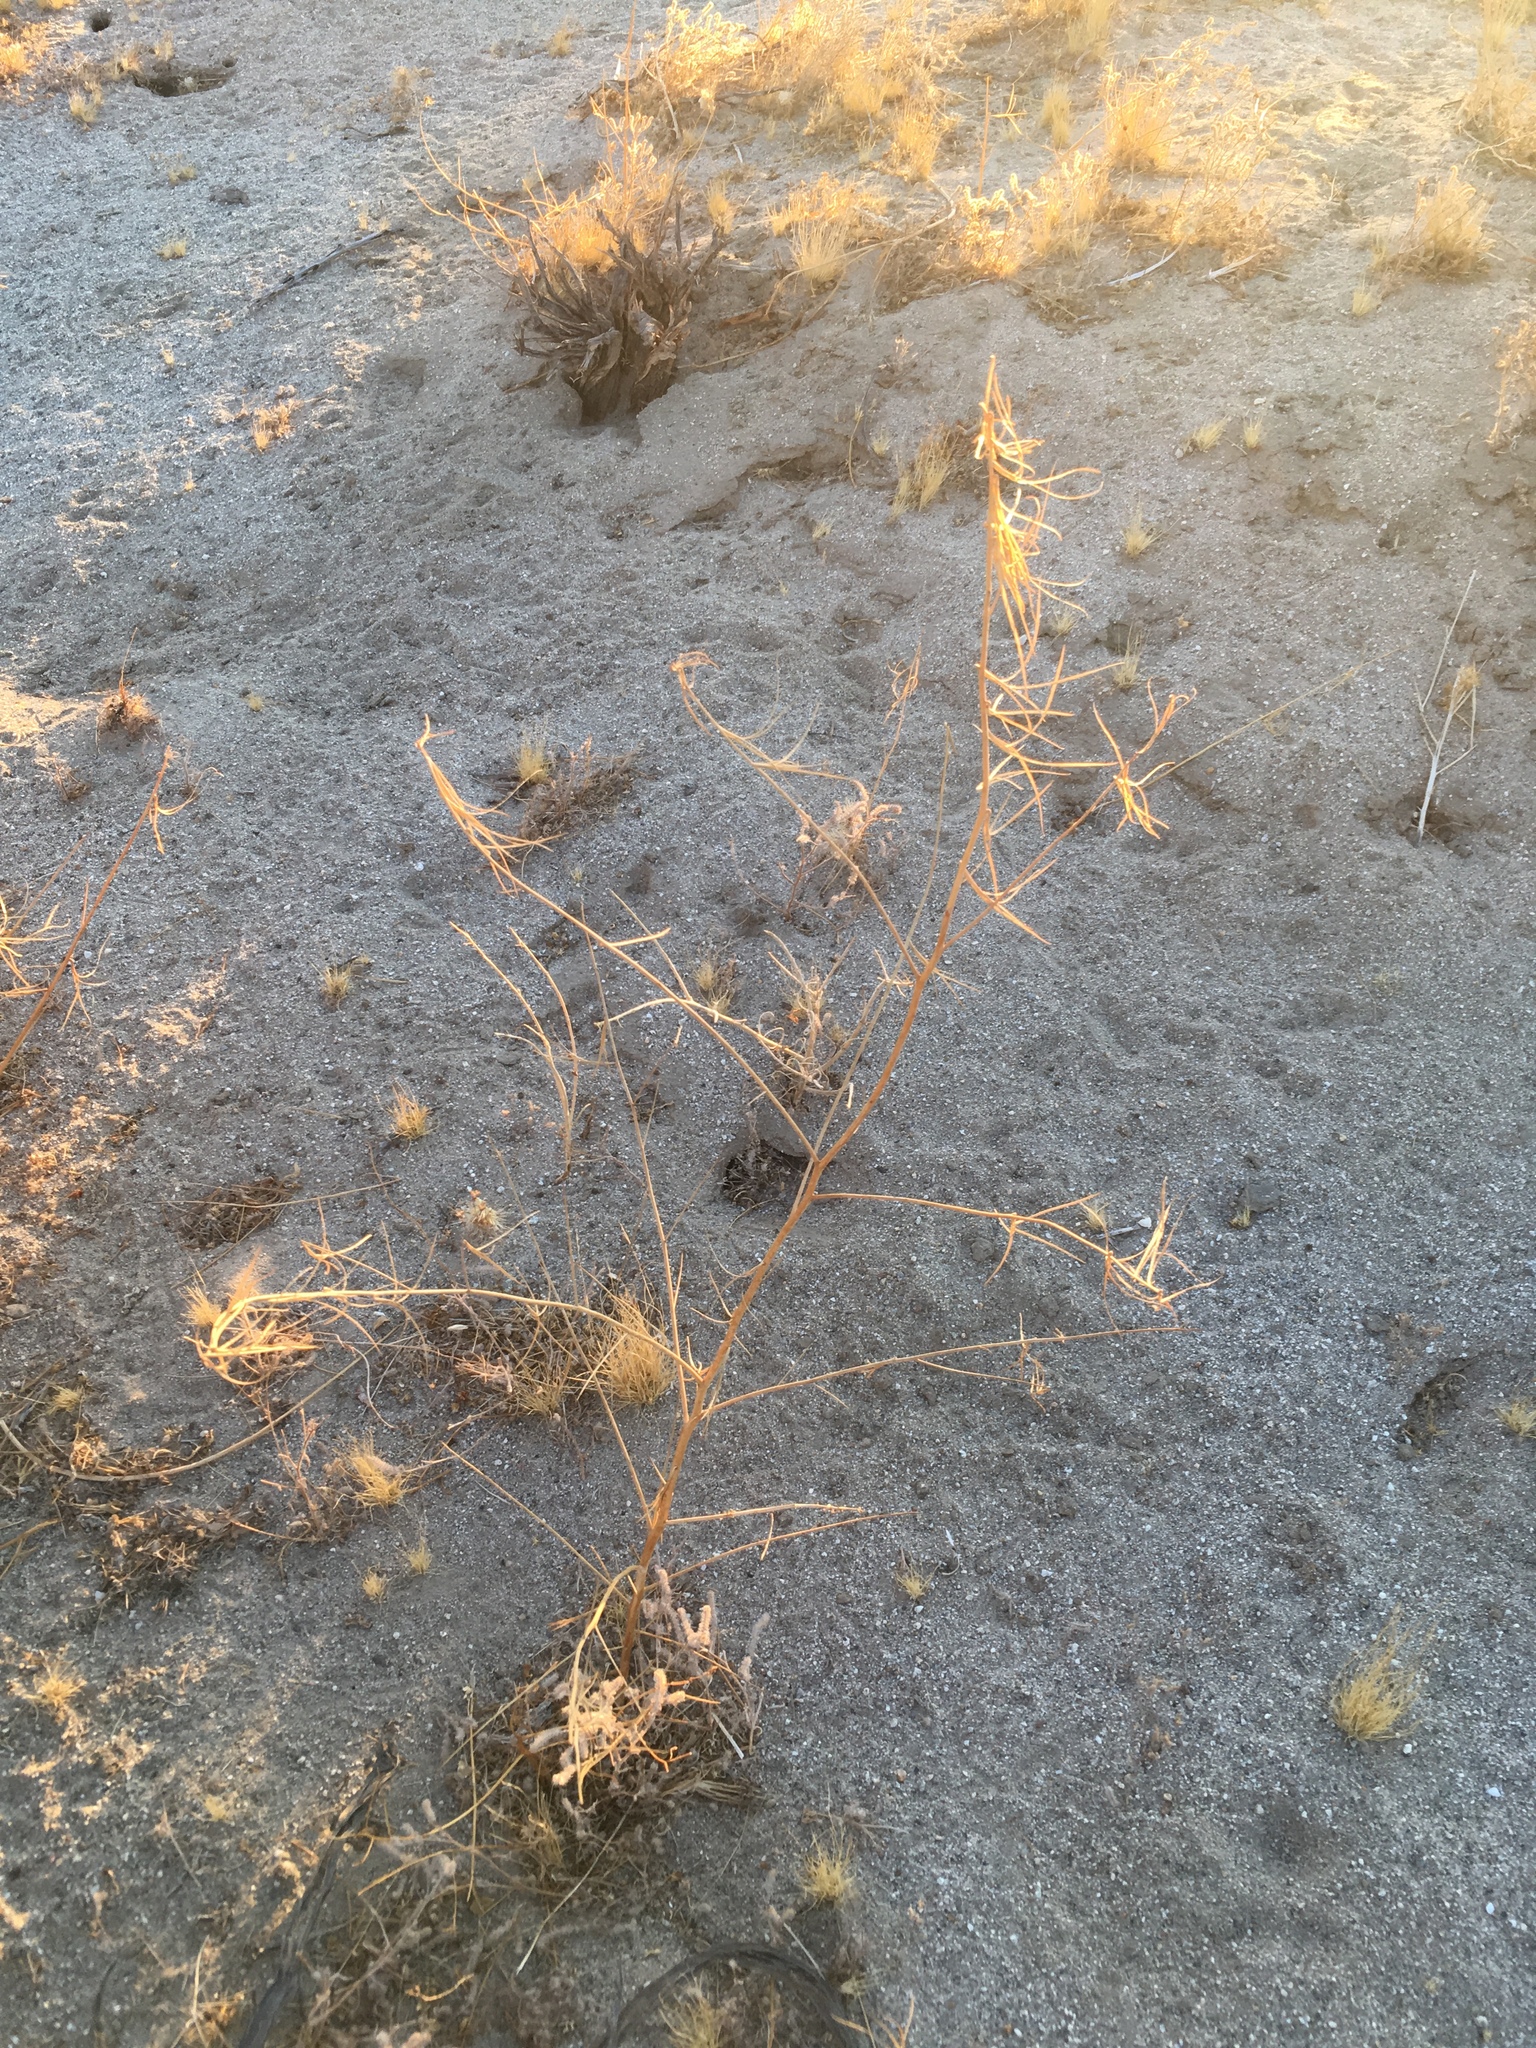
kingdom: Plantae
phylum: Tracheophyta
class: Magnoliopsida
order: Myrtales
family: Onagraceae
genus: Eulobus
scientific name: Eulobus californicus
